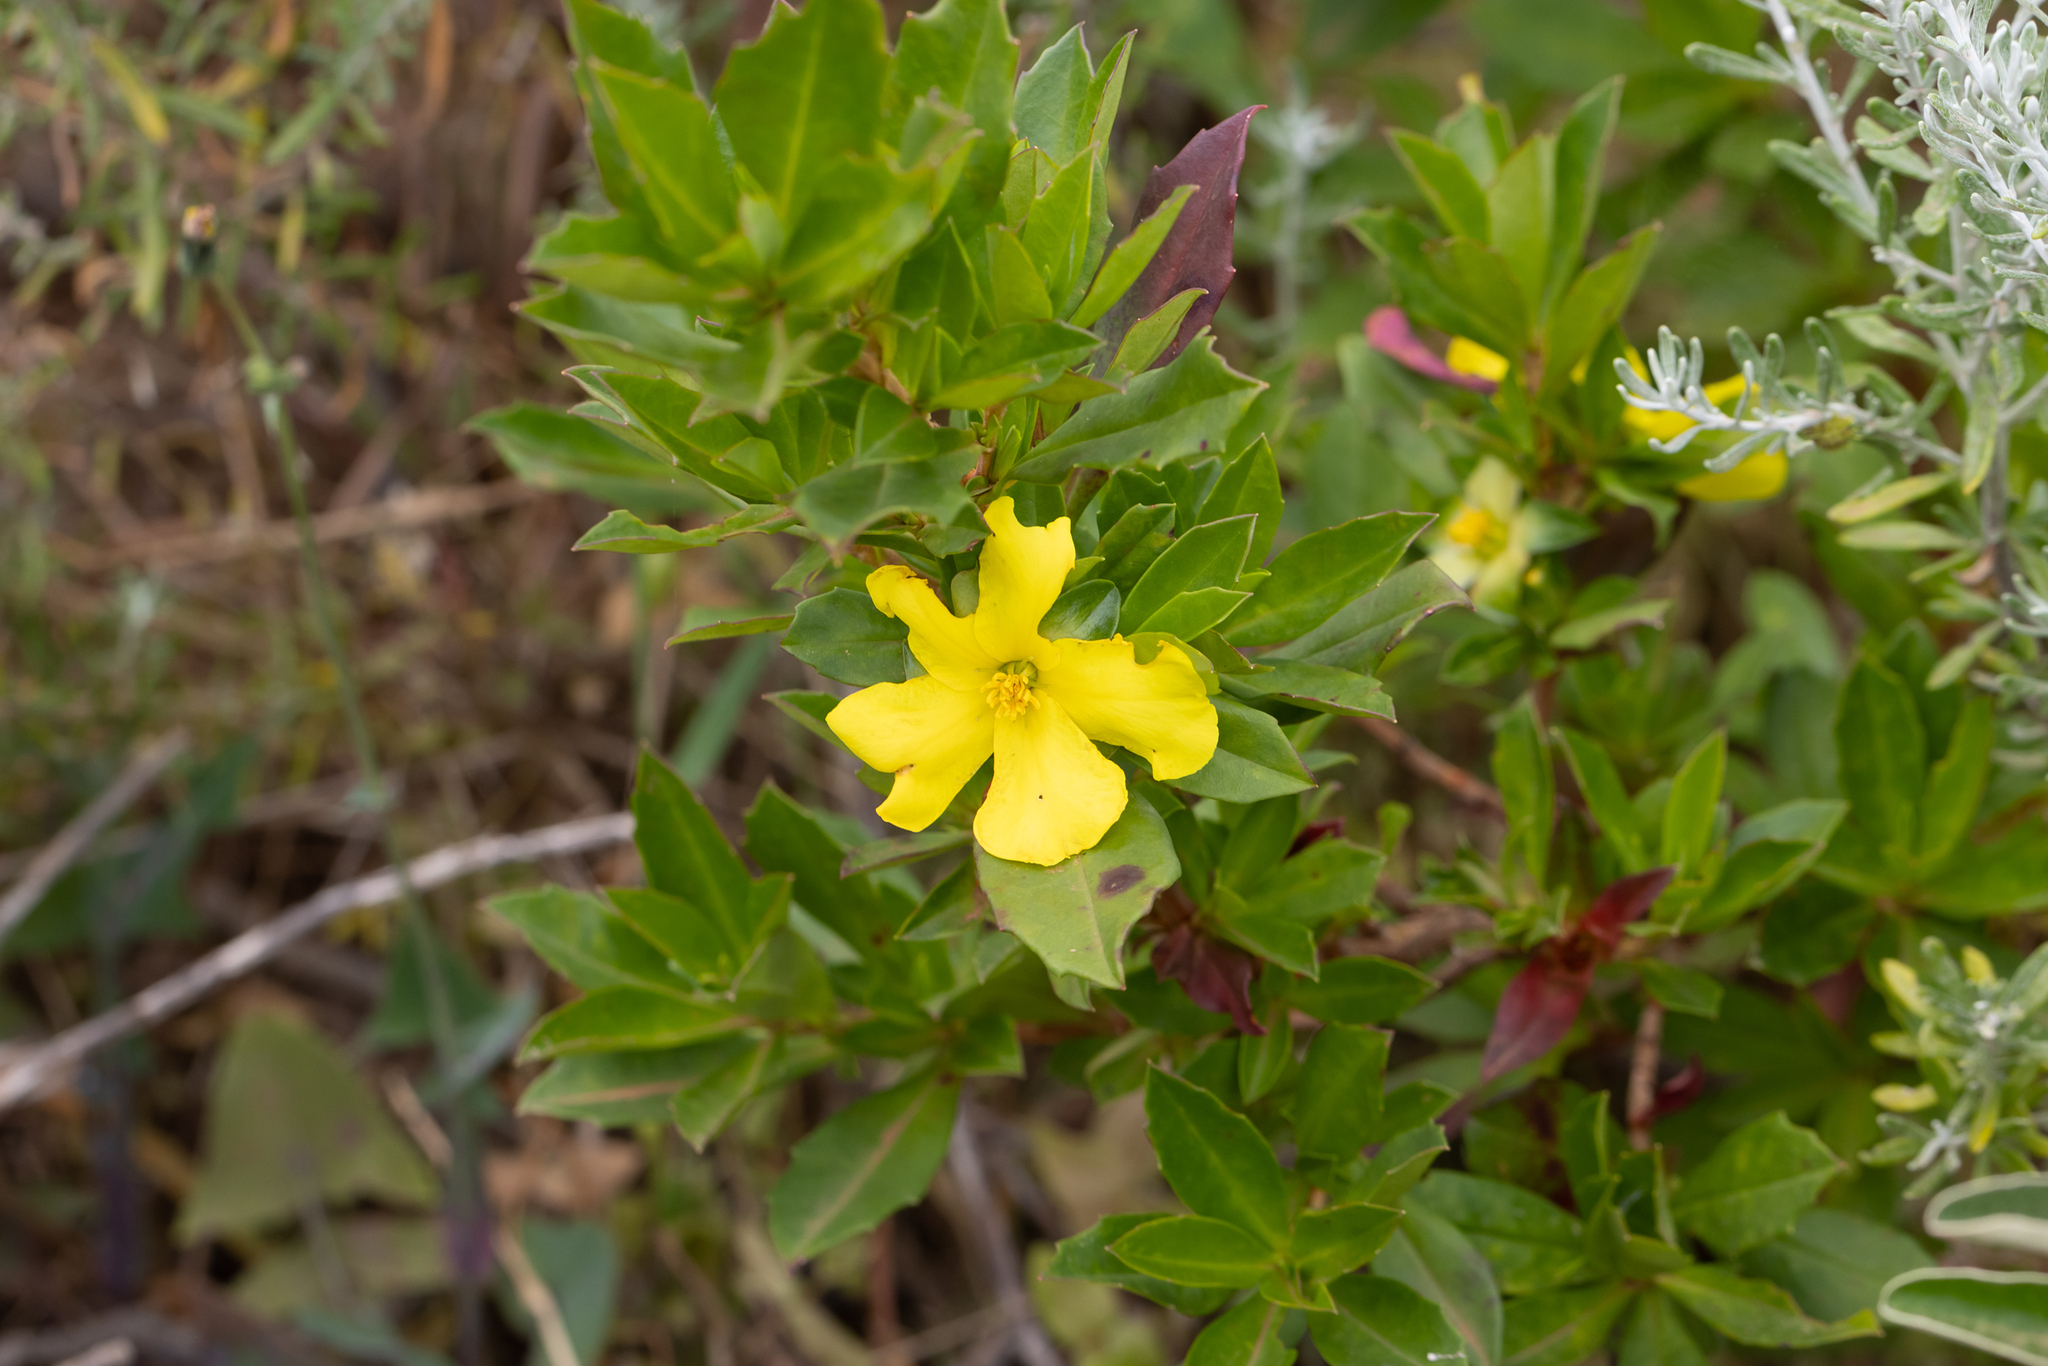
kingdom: Plantae
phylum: Tracheophyta
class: Magnoliopsida
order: Dilleniales
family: Dilleniaceae
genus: Hibbertia
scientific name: Hibbertia cuneiformis
